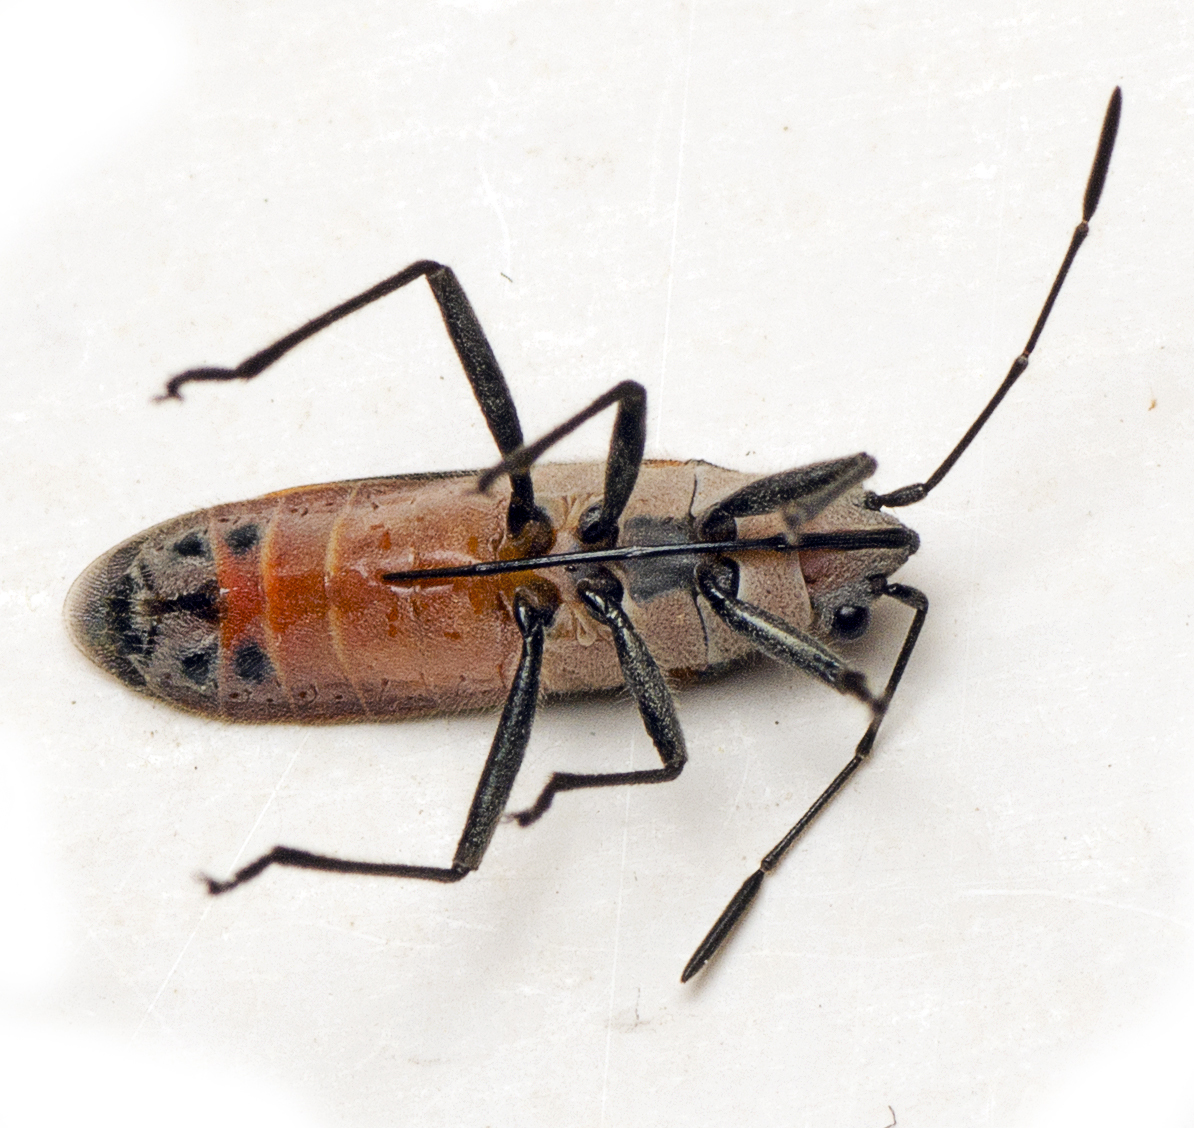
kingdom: Animalia
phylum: Arthropoda
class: Insecta
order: Hemiptera
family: Lygaeidae
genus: Arocatus
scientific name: Arocatus rusticus
